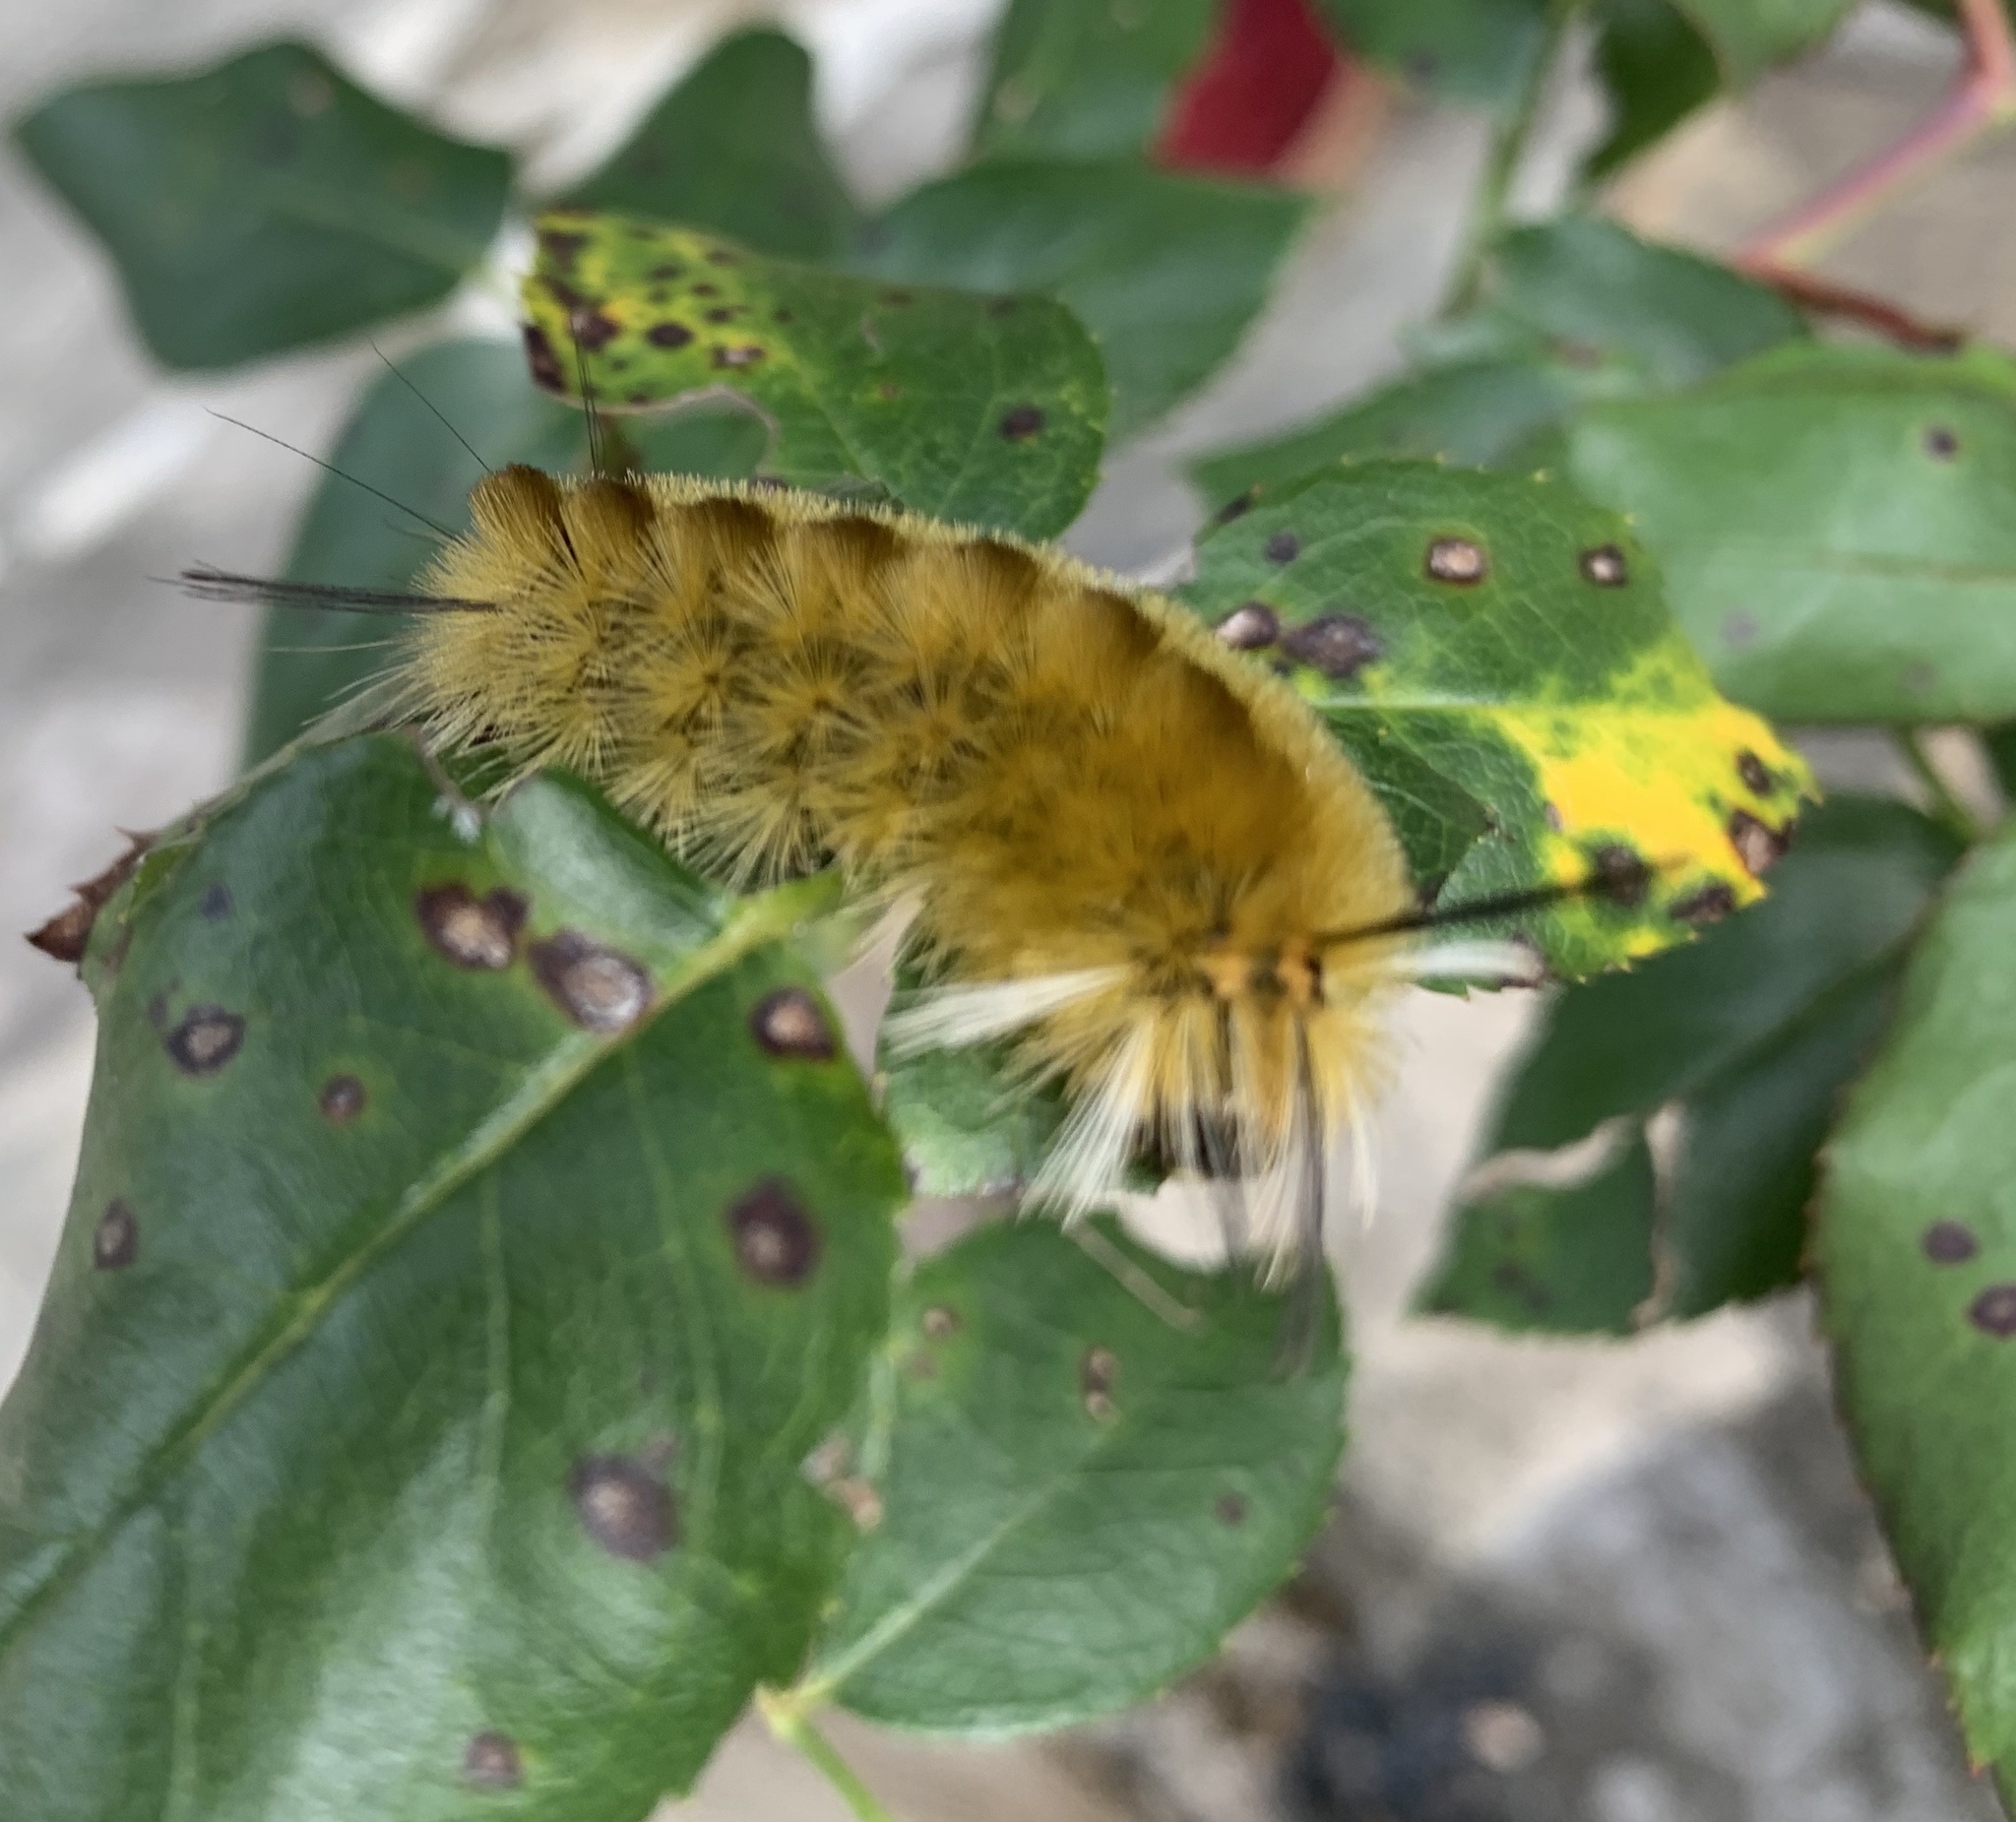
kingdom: Animalia
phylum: Arthropoda
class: Insecta
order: Lepidoptera
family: Erebidae
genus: Halysidota
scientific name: Halysidota tessellaris
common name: Banded tussock moth
